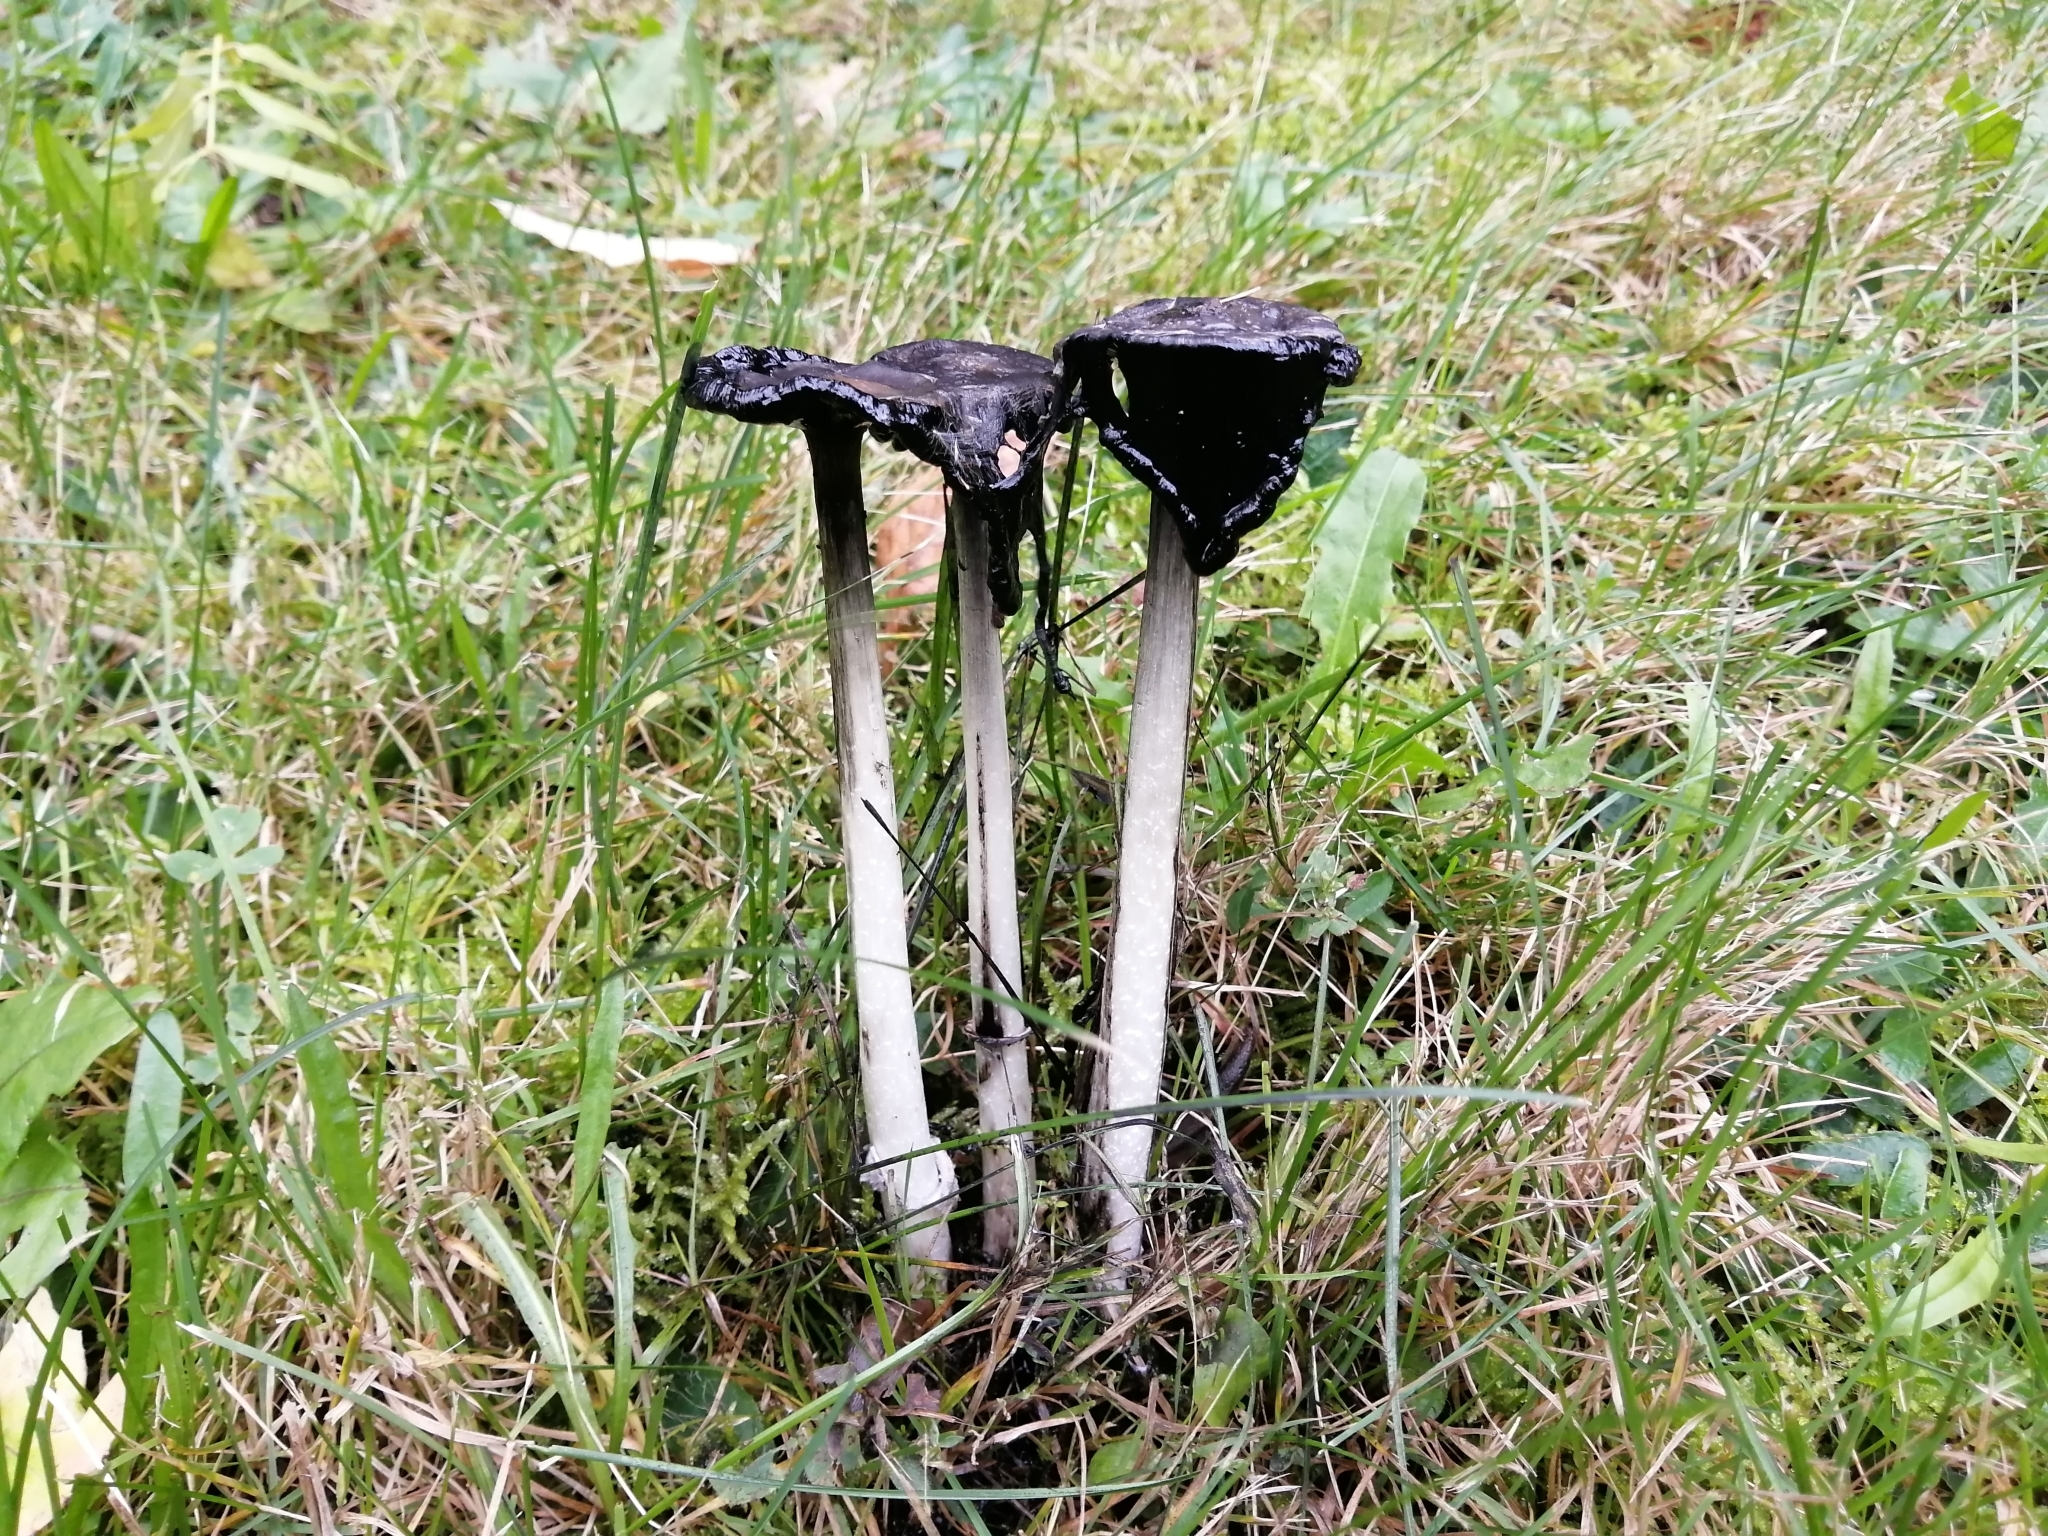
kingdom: Fungi
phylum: Basidiomycota
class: Agaricomycetes
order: Agaricales
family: Agaricaceae
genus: Coprinus
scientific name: Coprinus comatus
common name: Lawyer's wig
